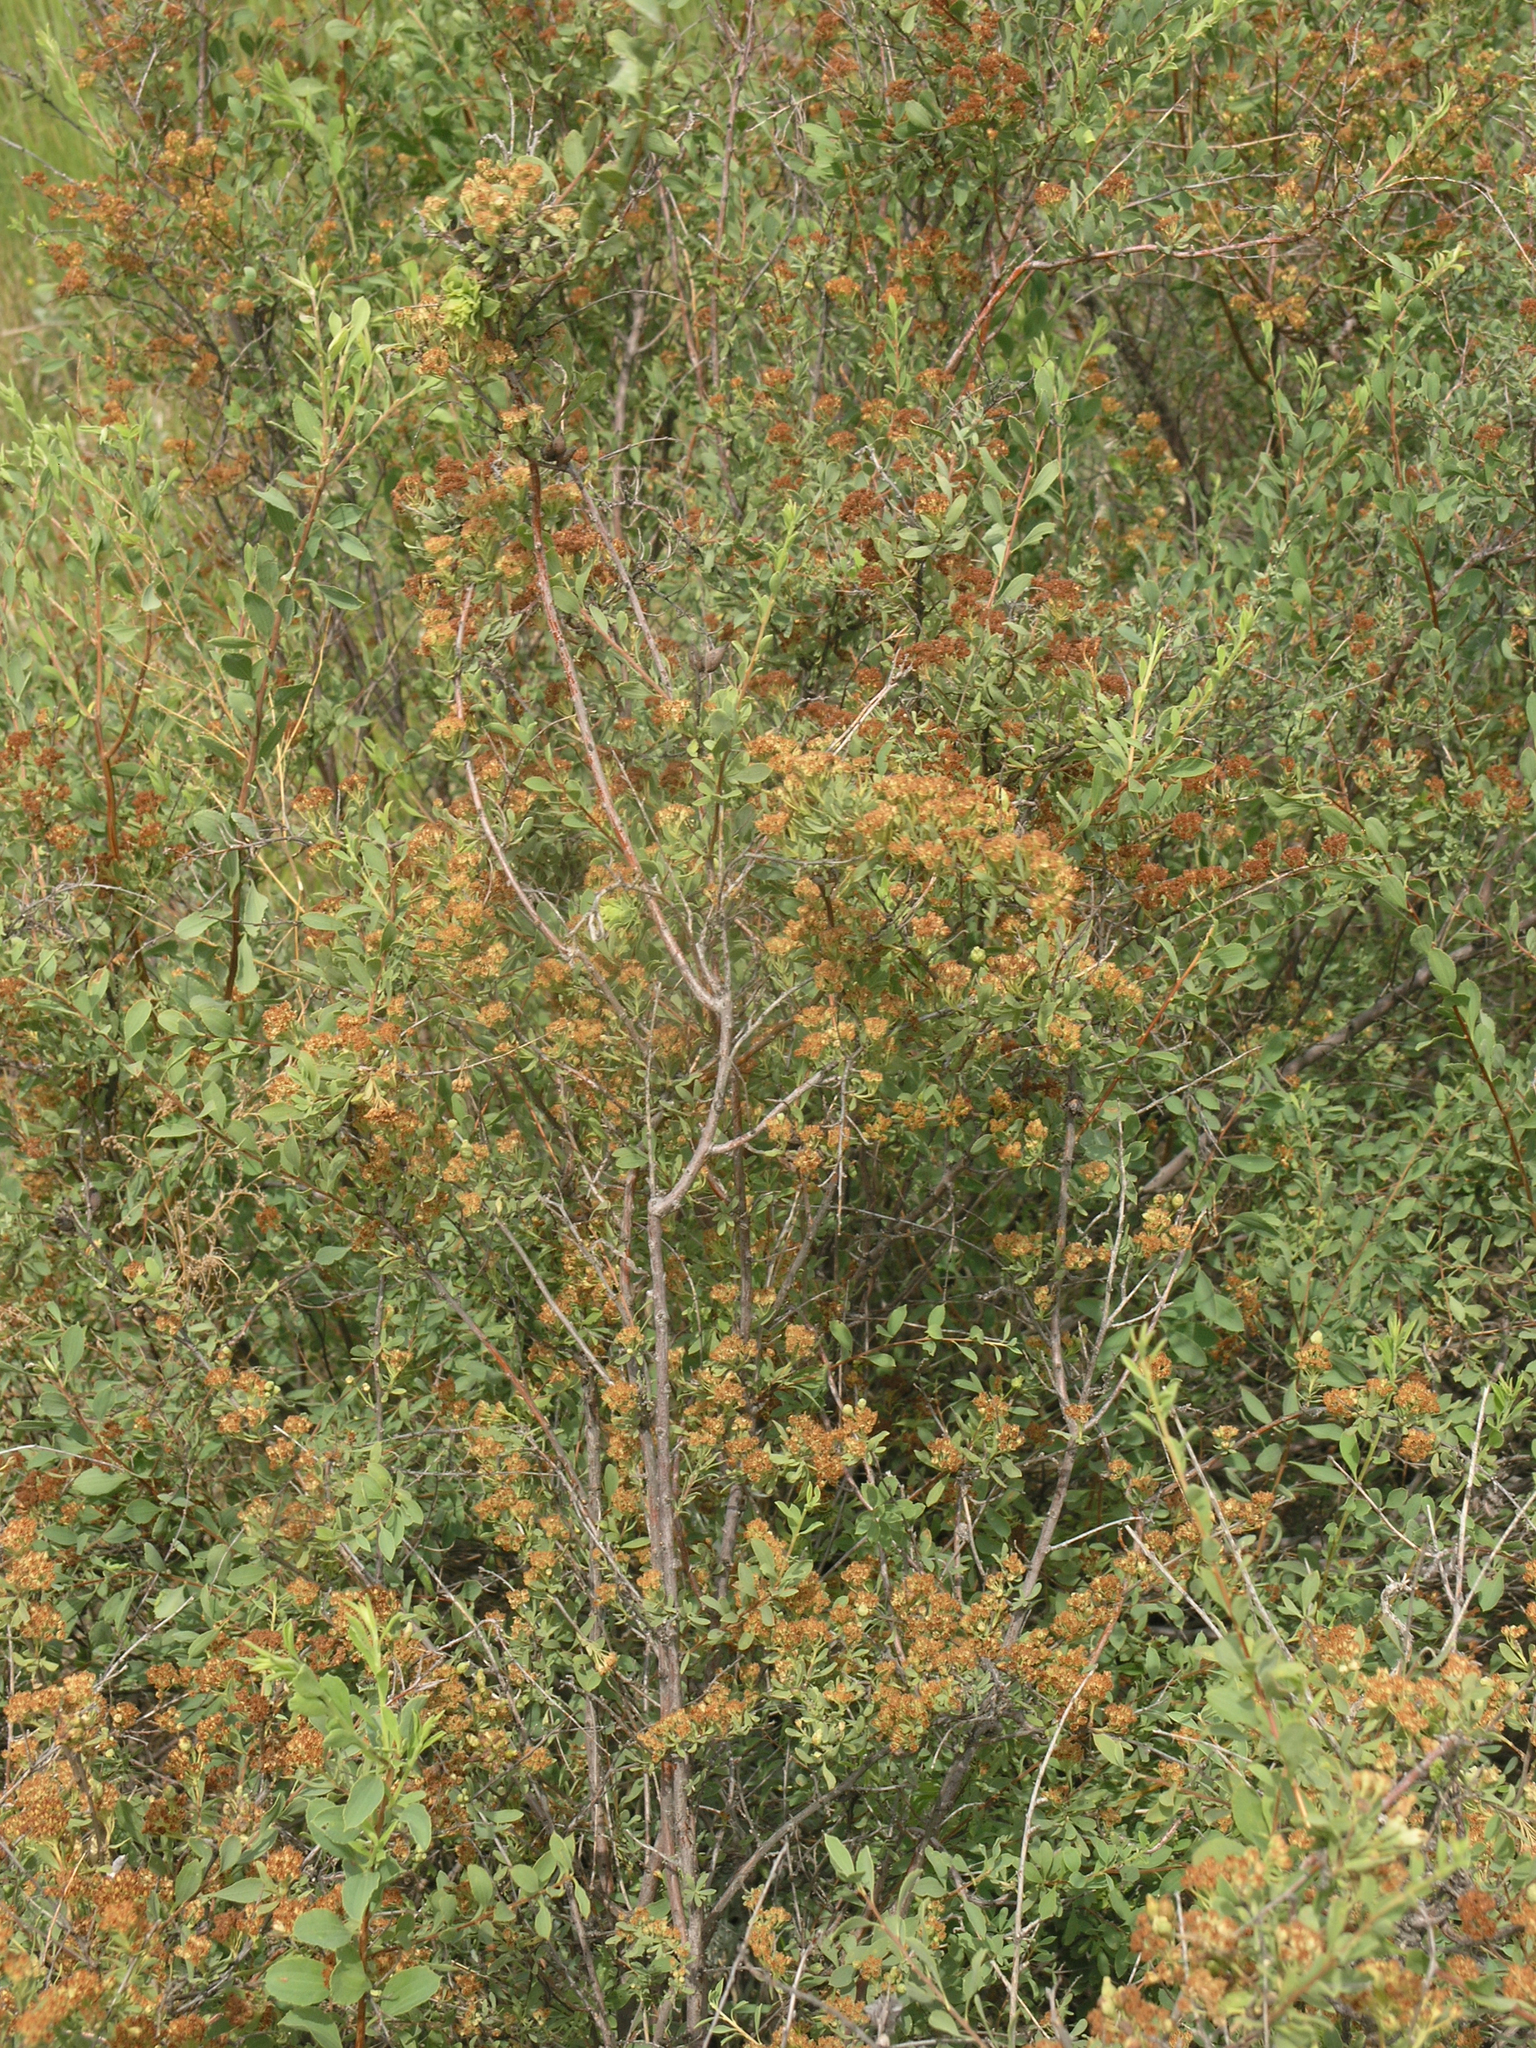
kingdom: Plantae
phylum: Tracheophyta
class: Magnoliopsida
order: Rosales
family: Rosaceae
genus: Spiraea
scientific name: Spiraea crenata
